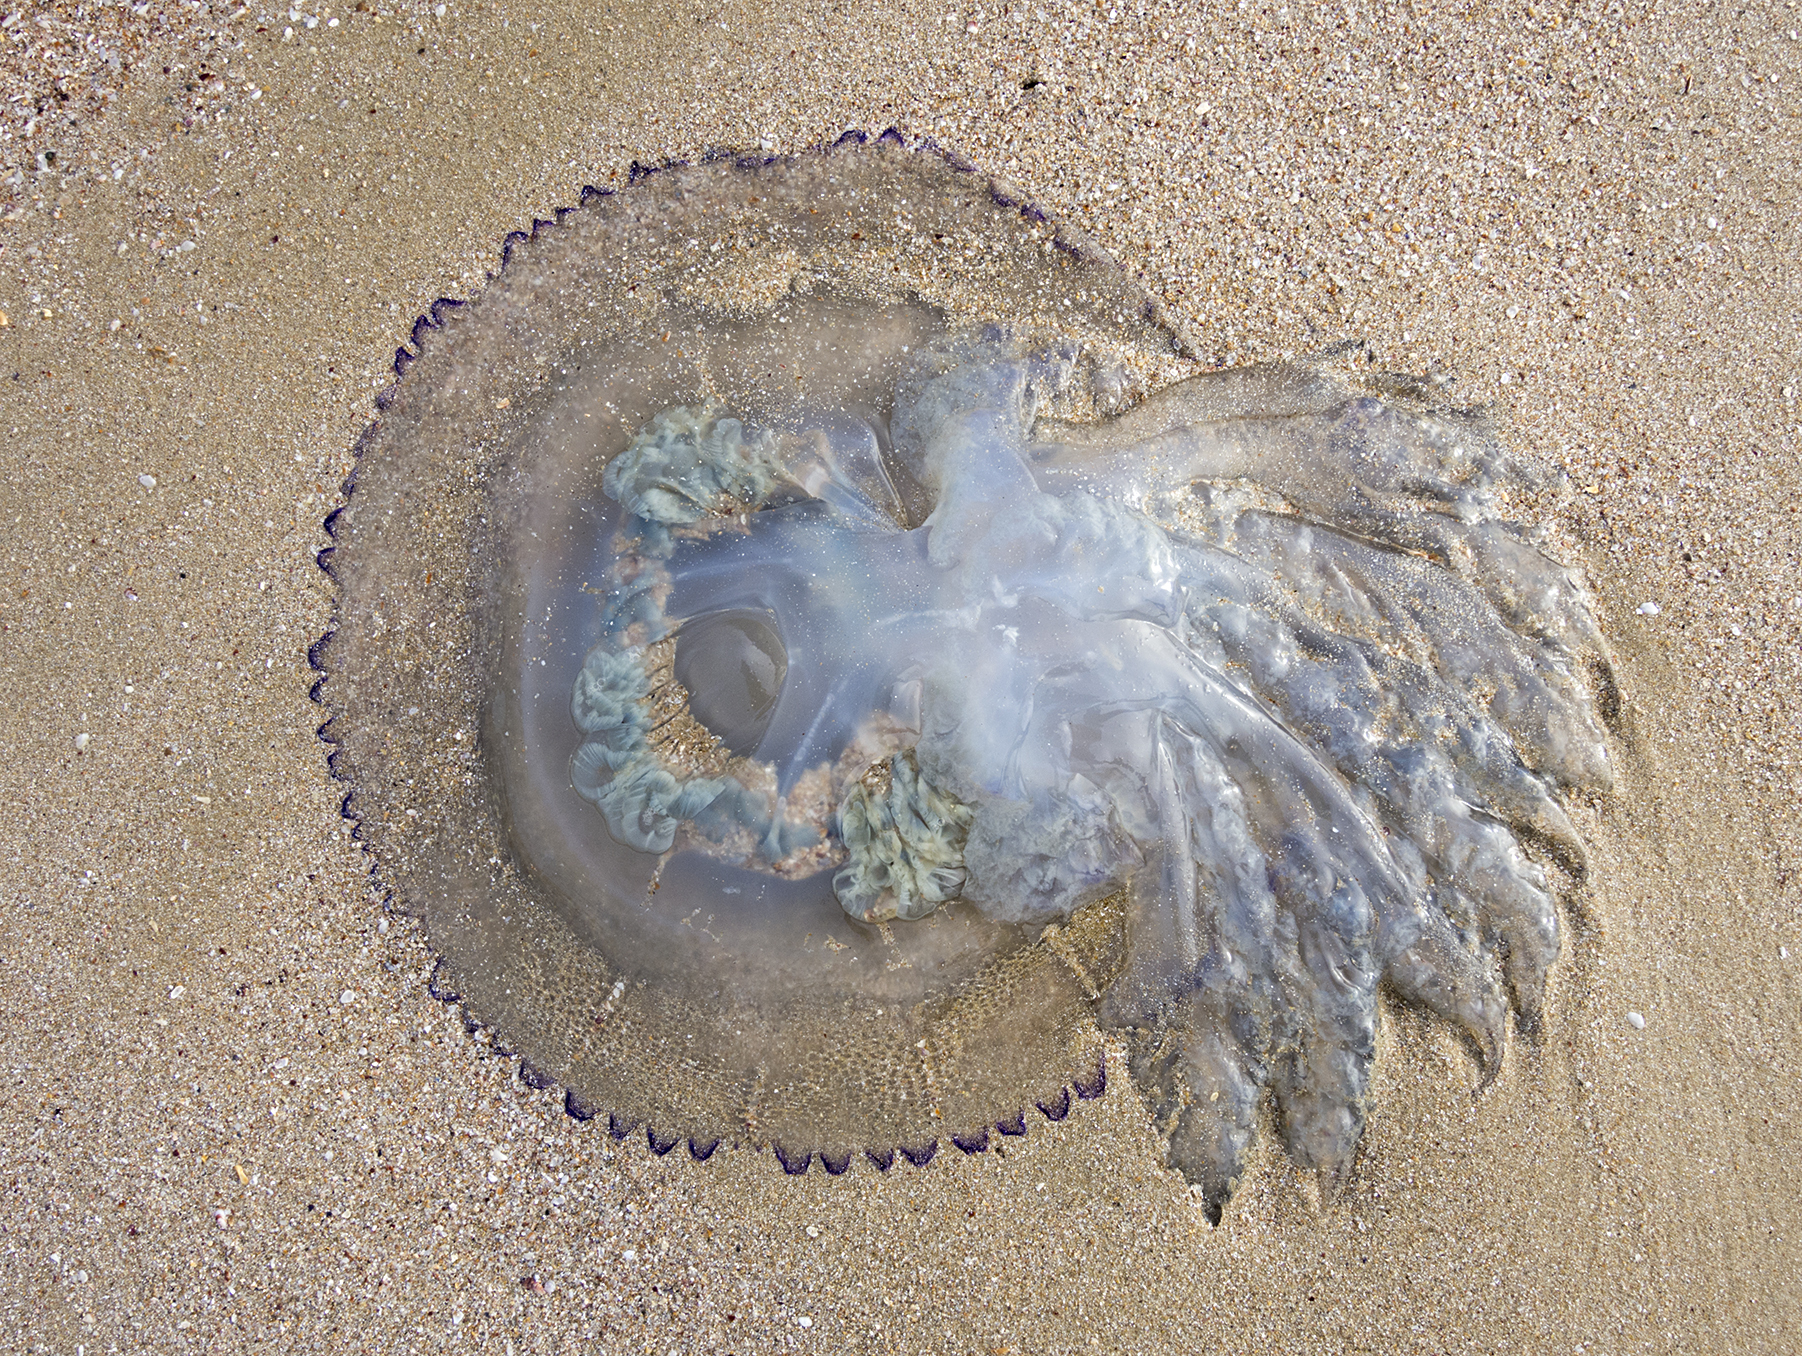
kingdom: Animalia
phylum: Cnidaria
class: Scyphozoa
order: Rhizostomeae
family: Rhizostomatidae
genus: Rhizostoma
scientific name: Rhizostoma pulmo
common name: Barrel jellyfish
